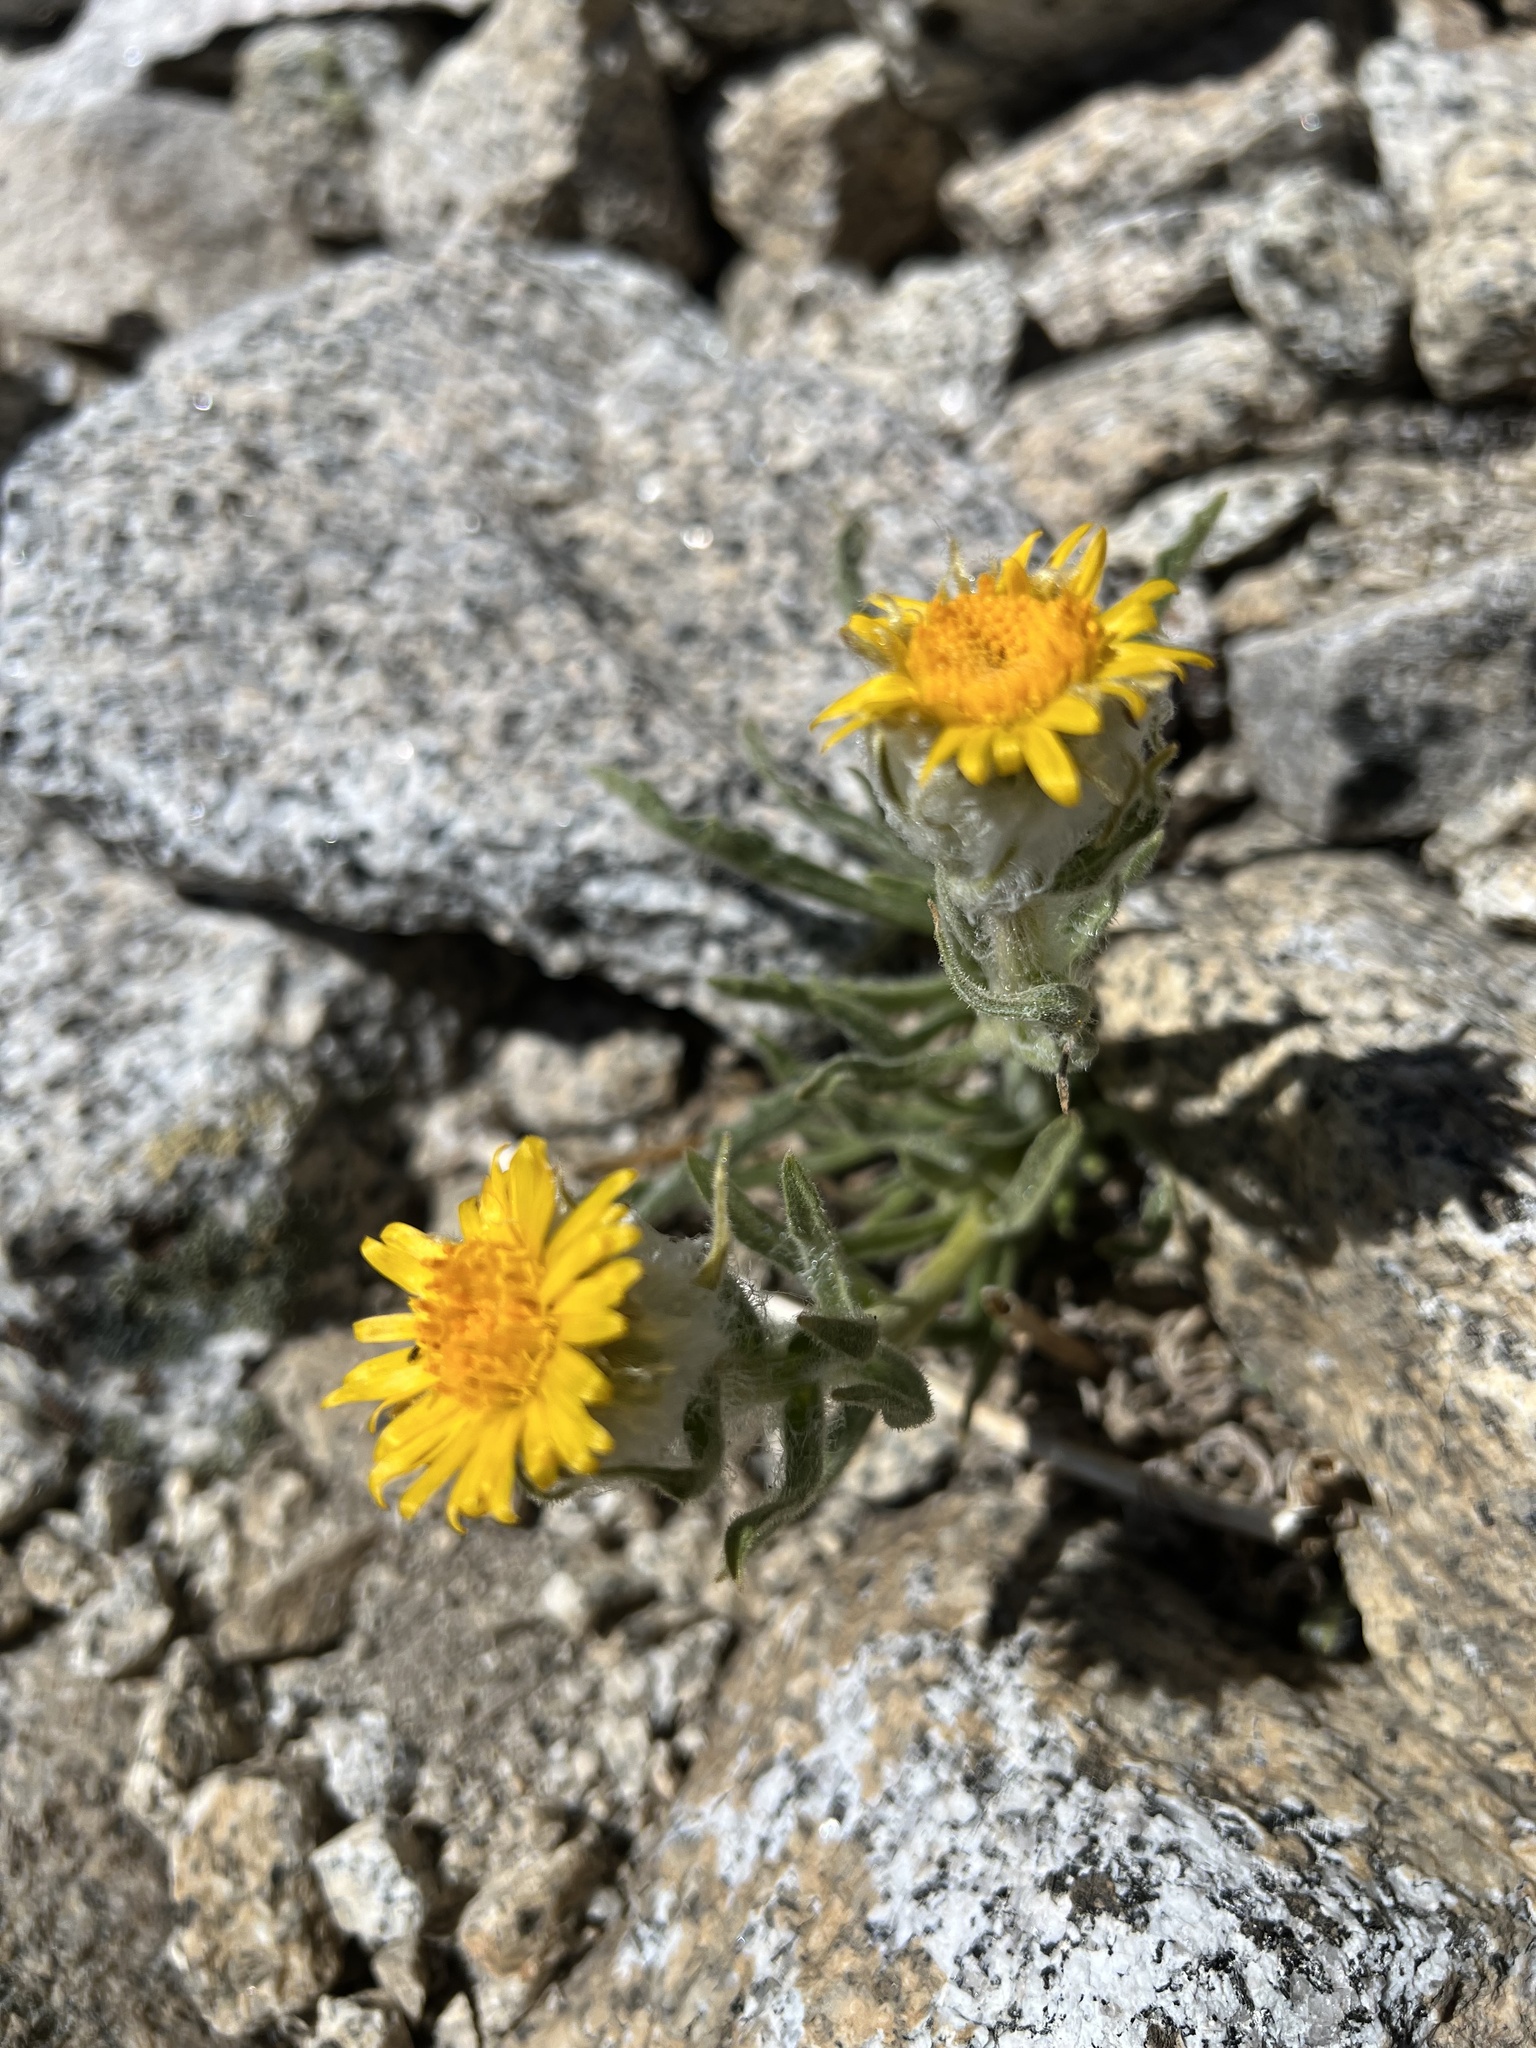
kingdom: Plantae
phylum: Tracheophyta
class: Magnoliopsida
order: Asterales
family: Asteraceae
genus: Hulsea
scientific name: Hulsea algida
